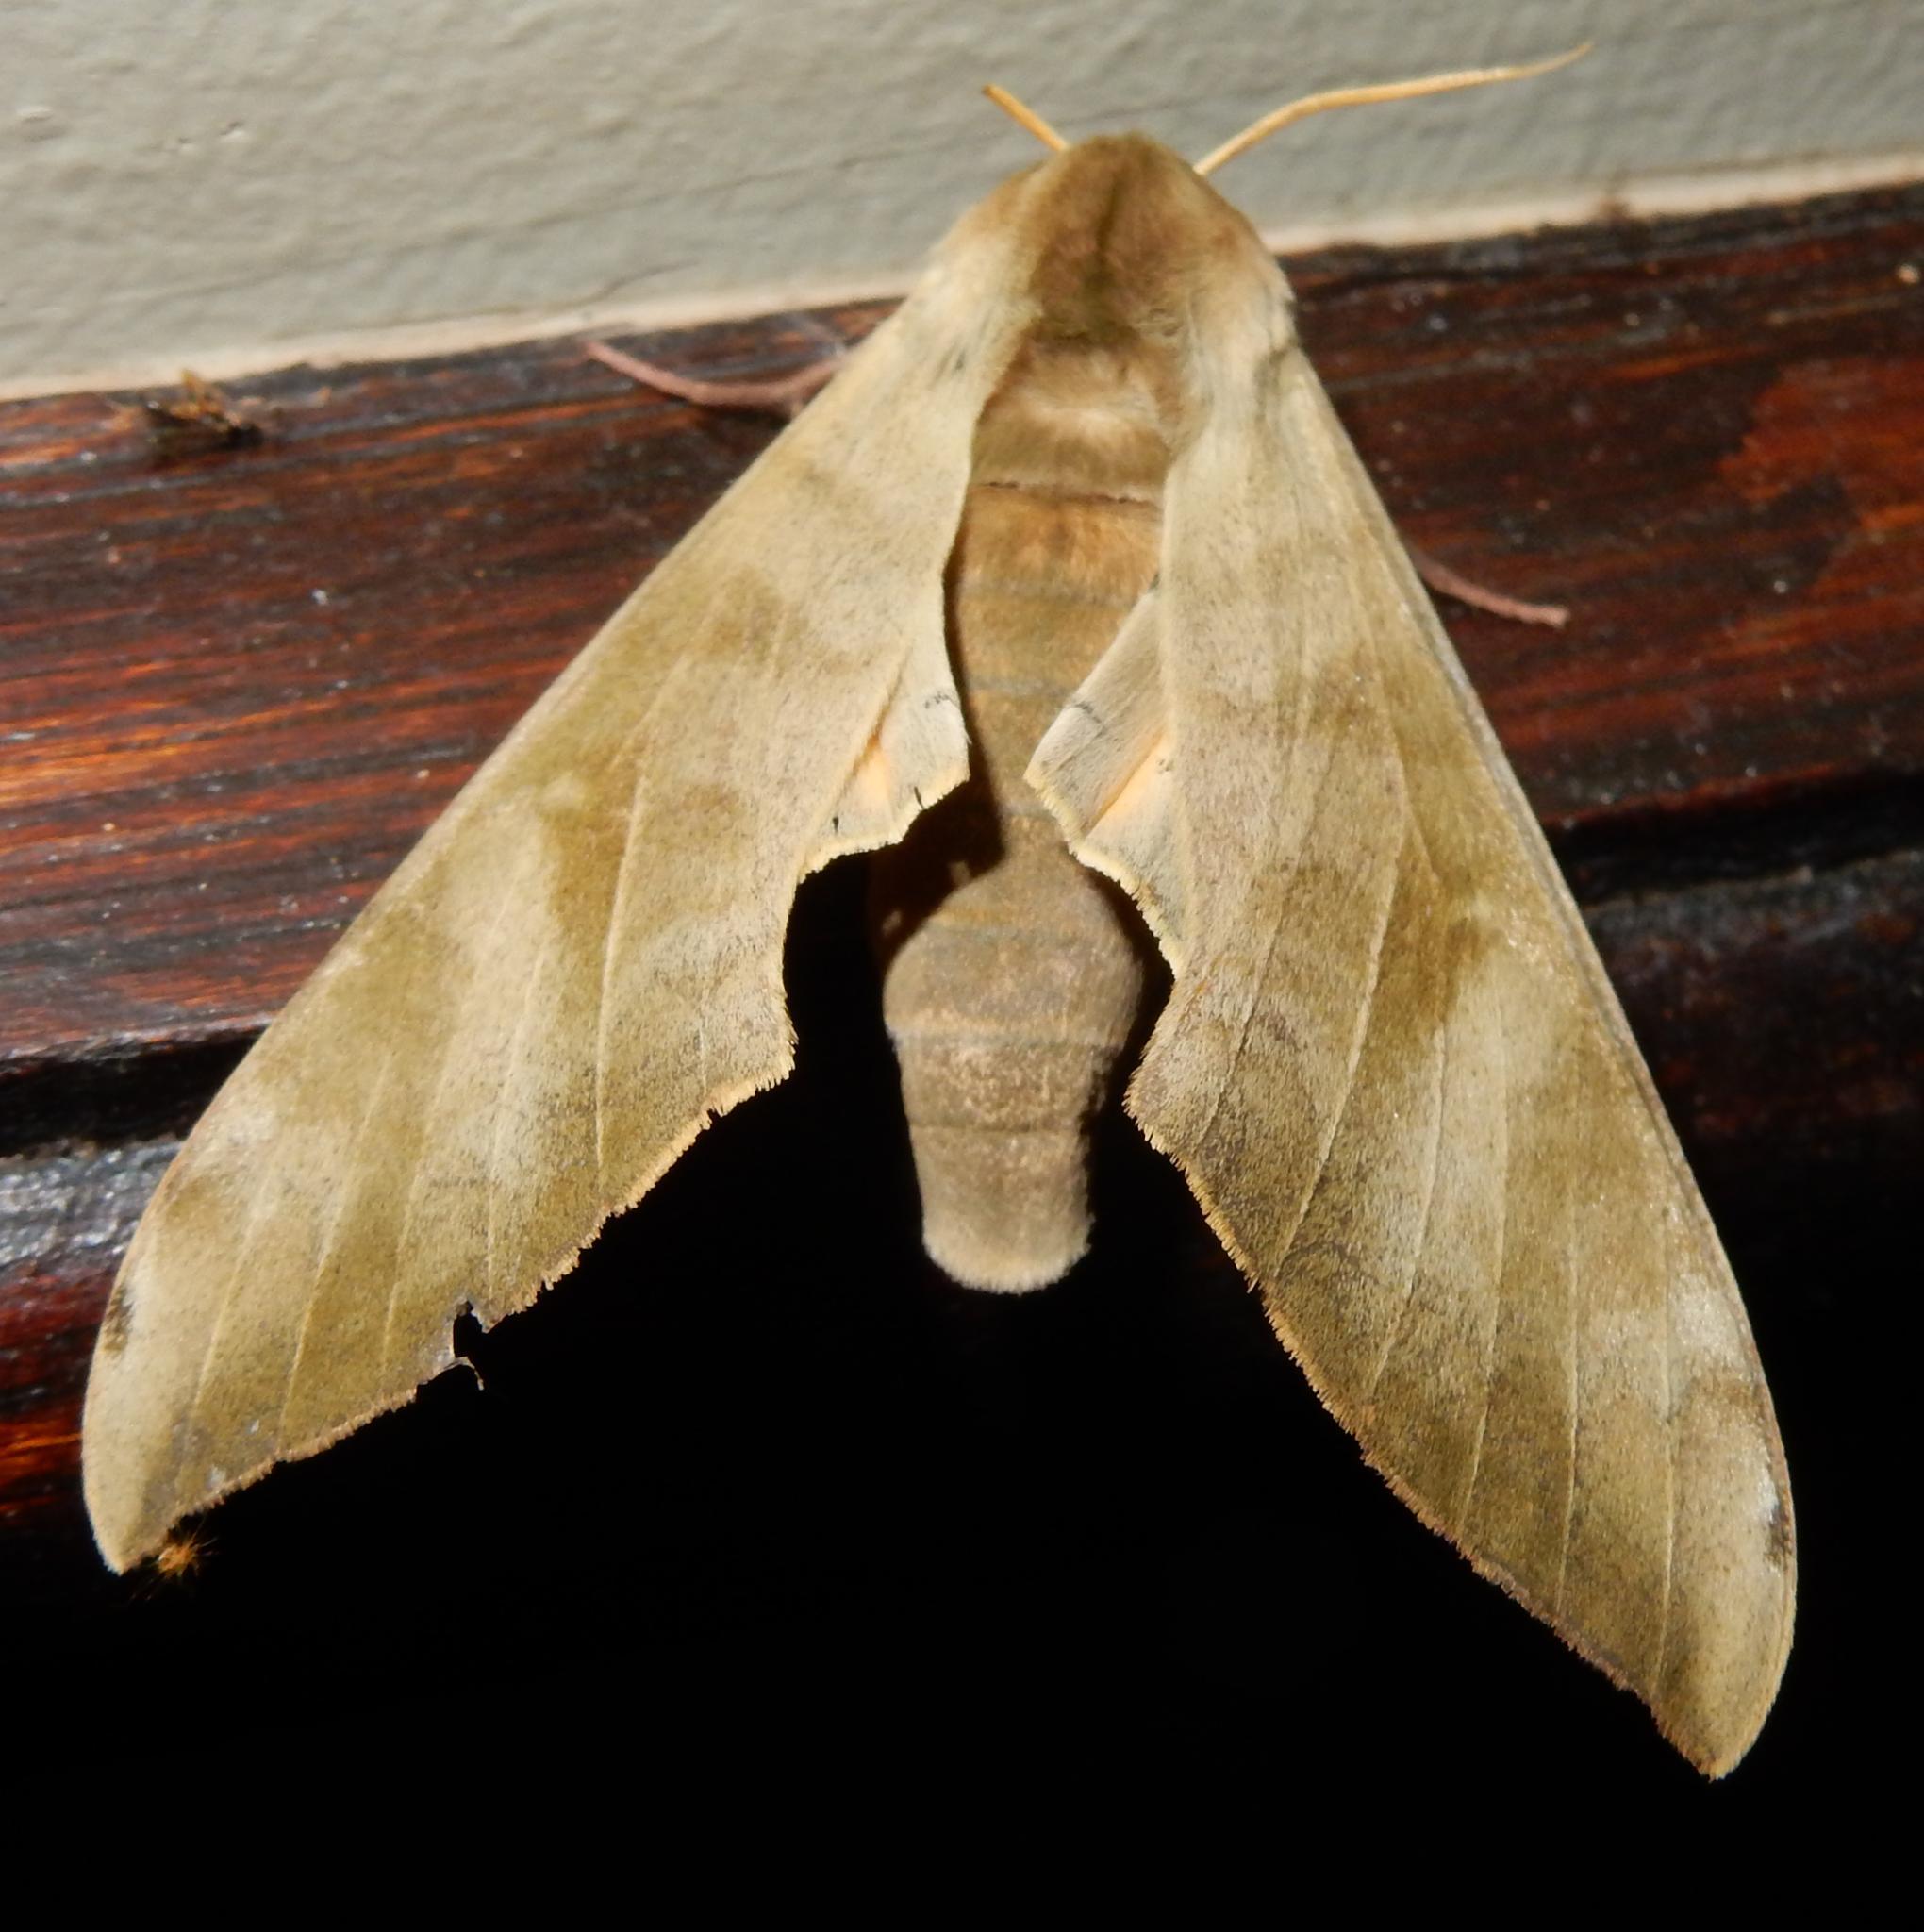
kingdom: Animalia
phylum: Arthropoda
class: Insecta
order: Lepidoptera
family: Sphingidae
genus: Pseudoclanis
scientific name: Pseudoclanis postica
